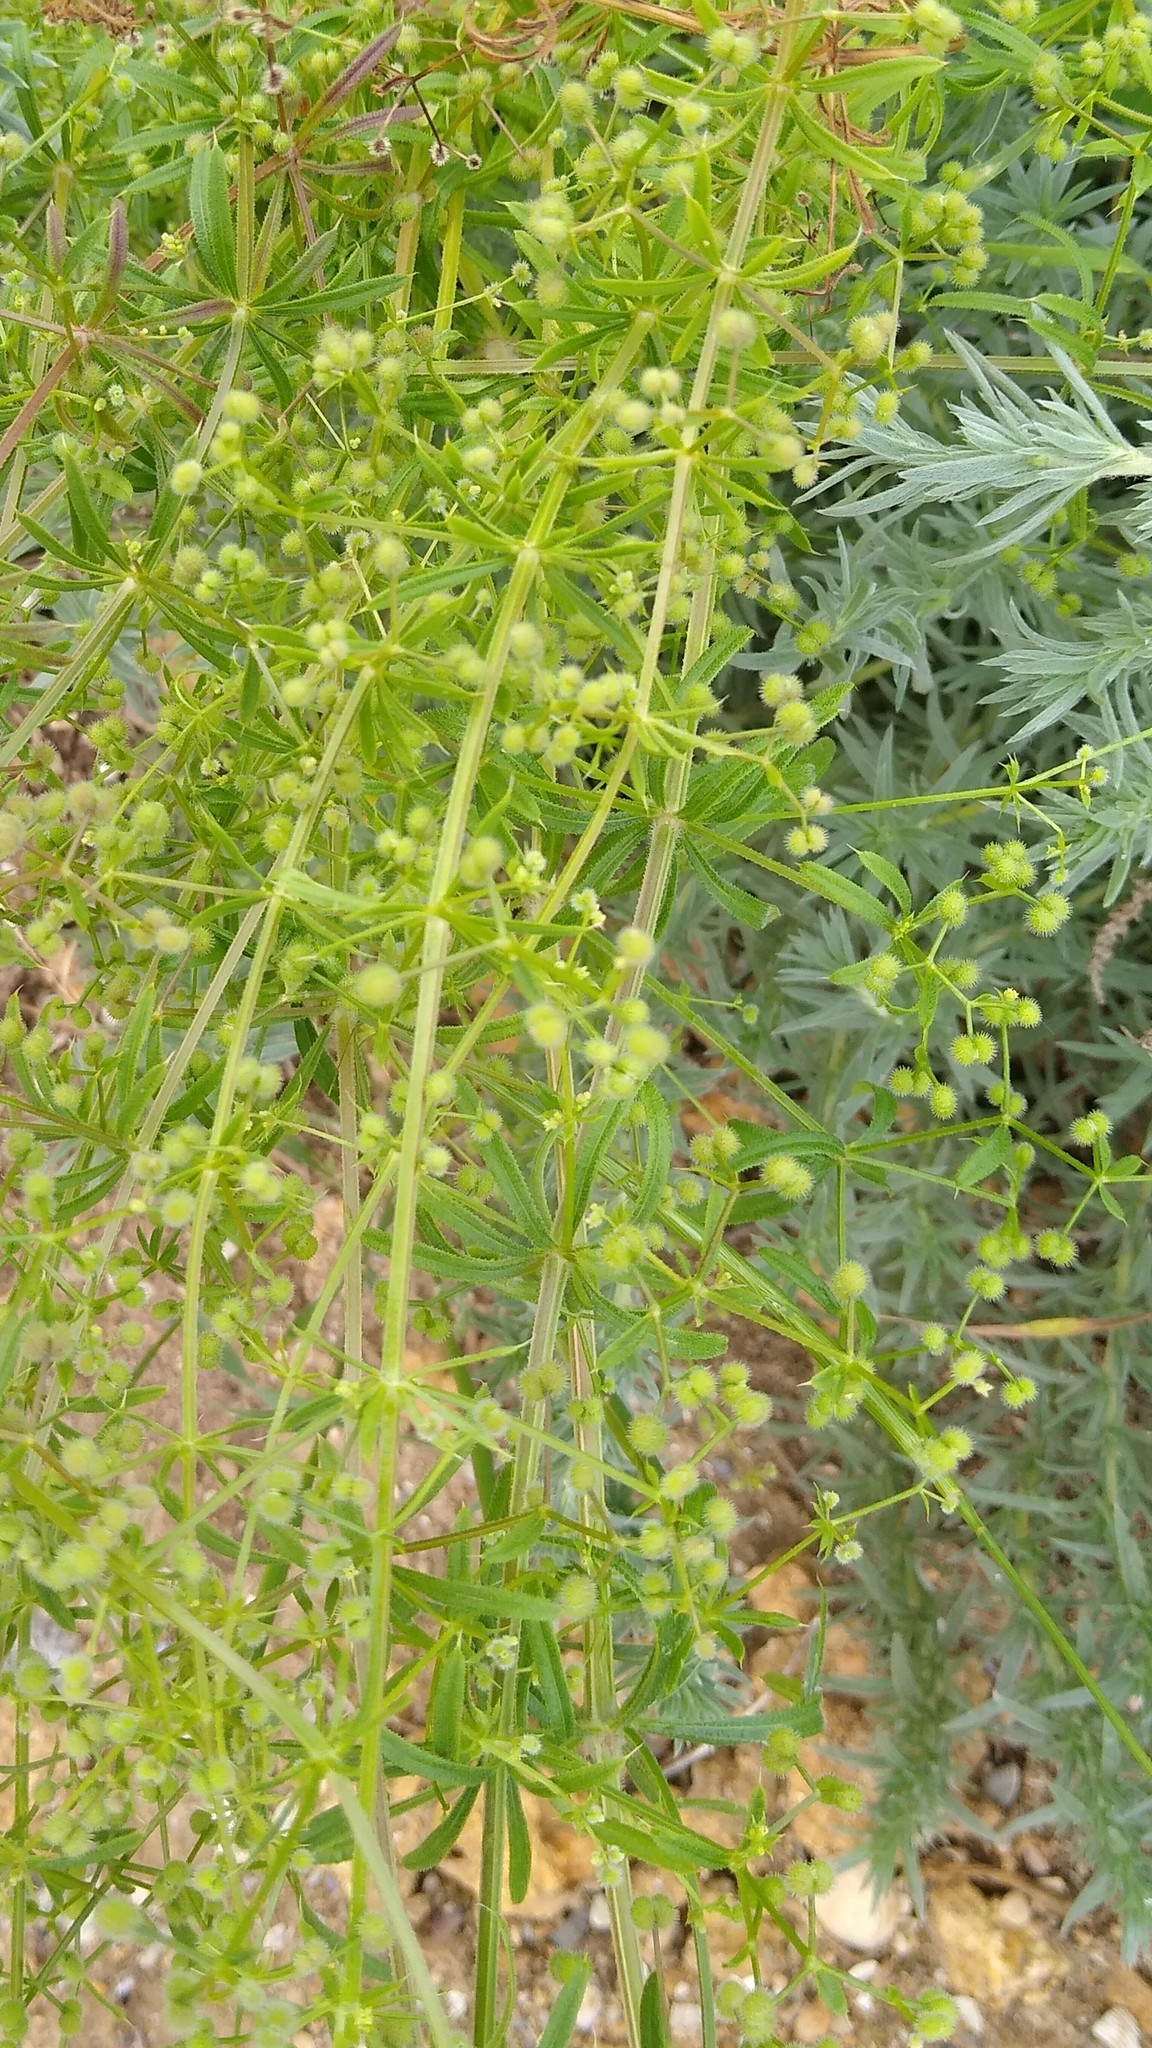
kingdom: Plantae
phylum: Tracheophyta
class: Magnoliopsida
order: Gentianales
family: Rubiaceae
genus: Galium
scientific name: Galium aparine
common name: Cleavers
